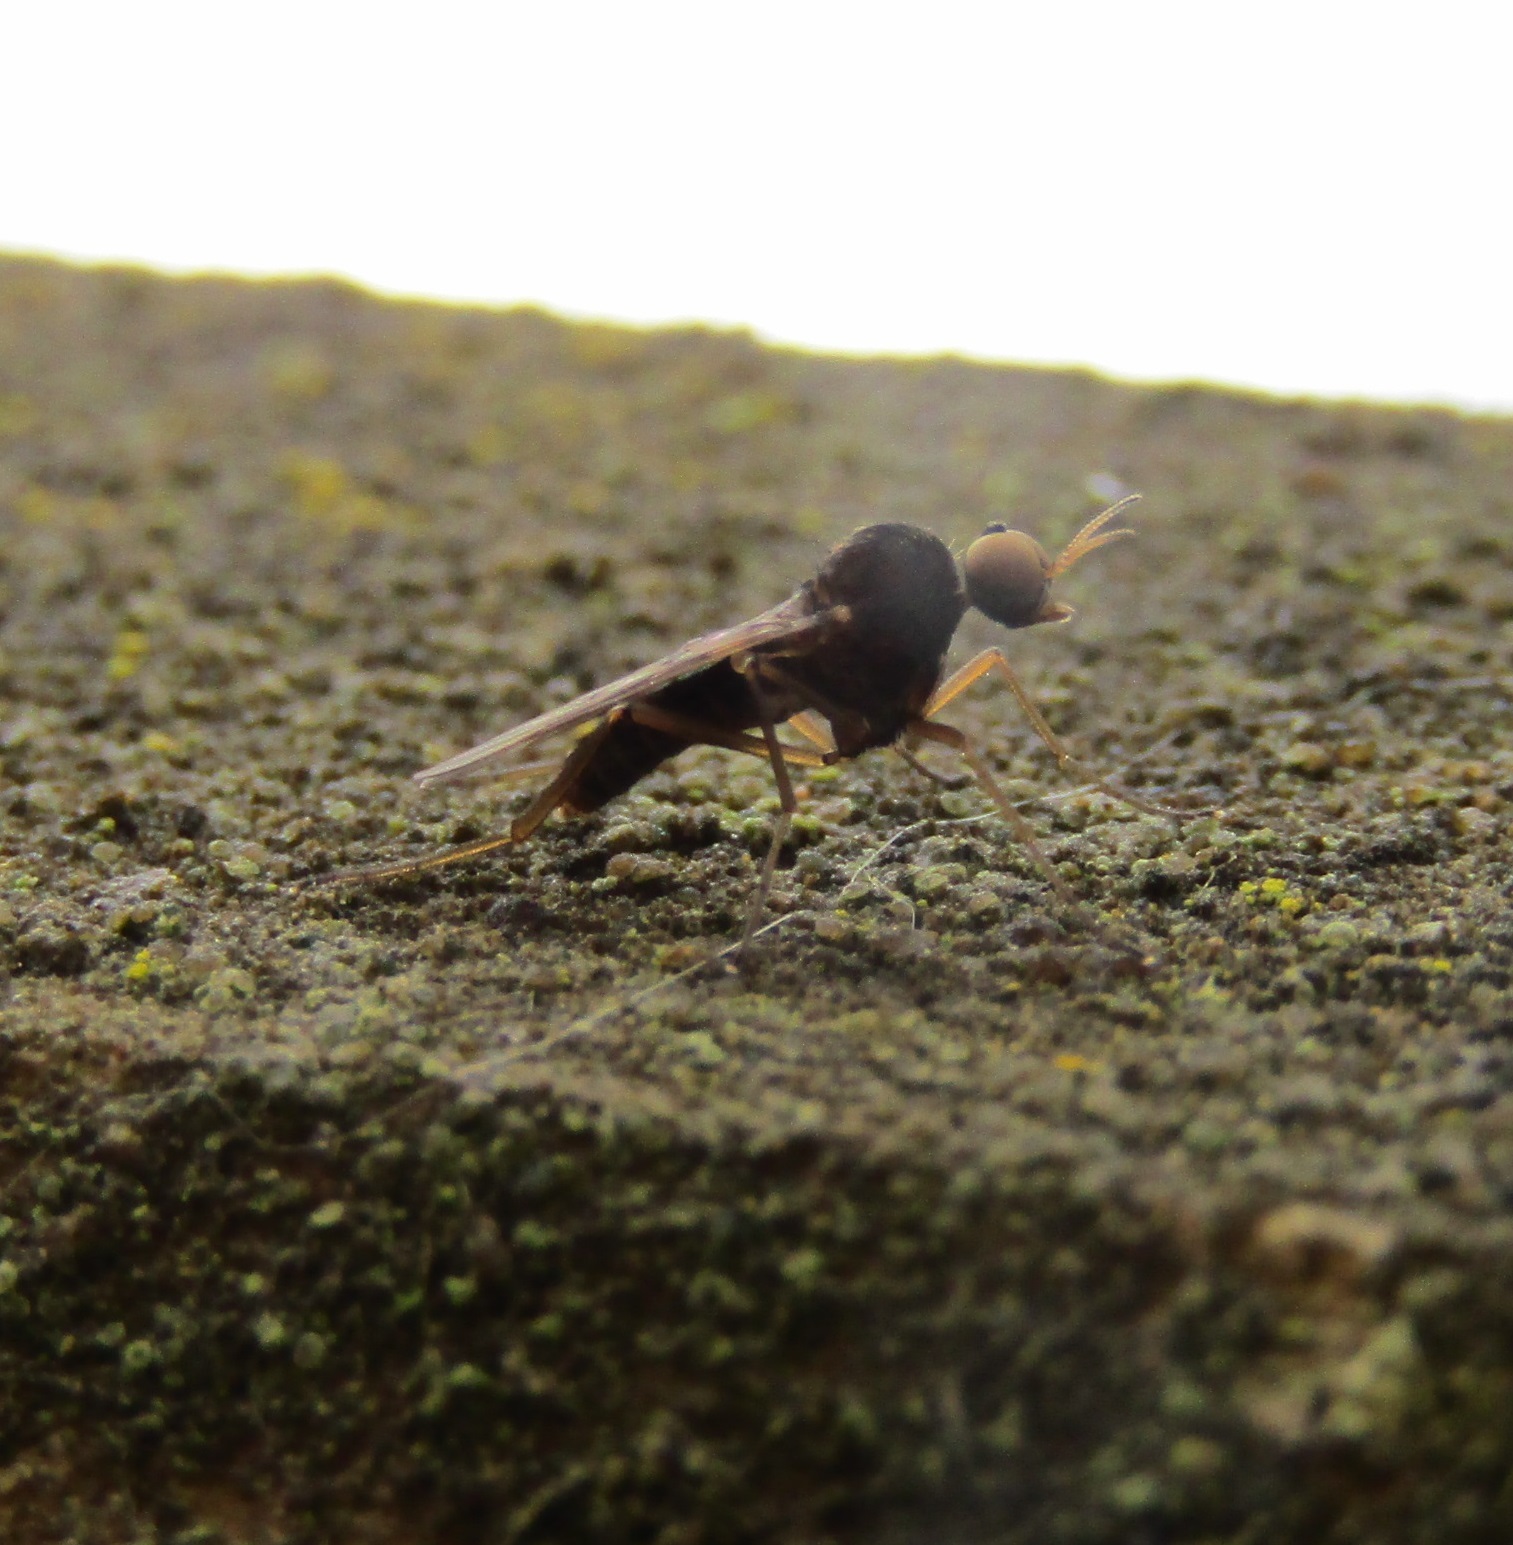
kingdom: Animalia
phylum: Arthropoda
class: Insecta
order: Diptera
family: Anisopodidae
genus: Sylvicola
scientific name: Sylvicola neozelandicus
